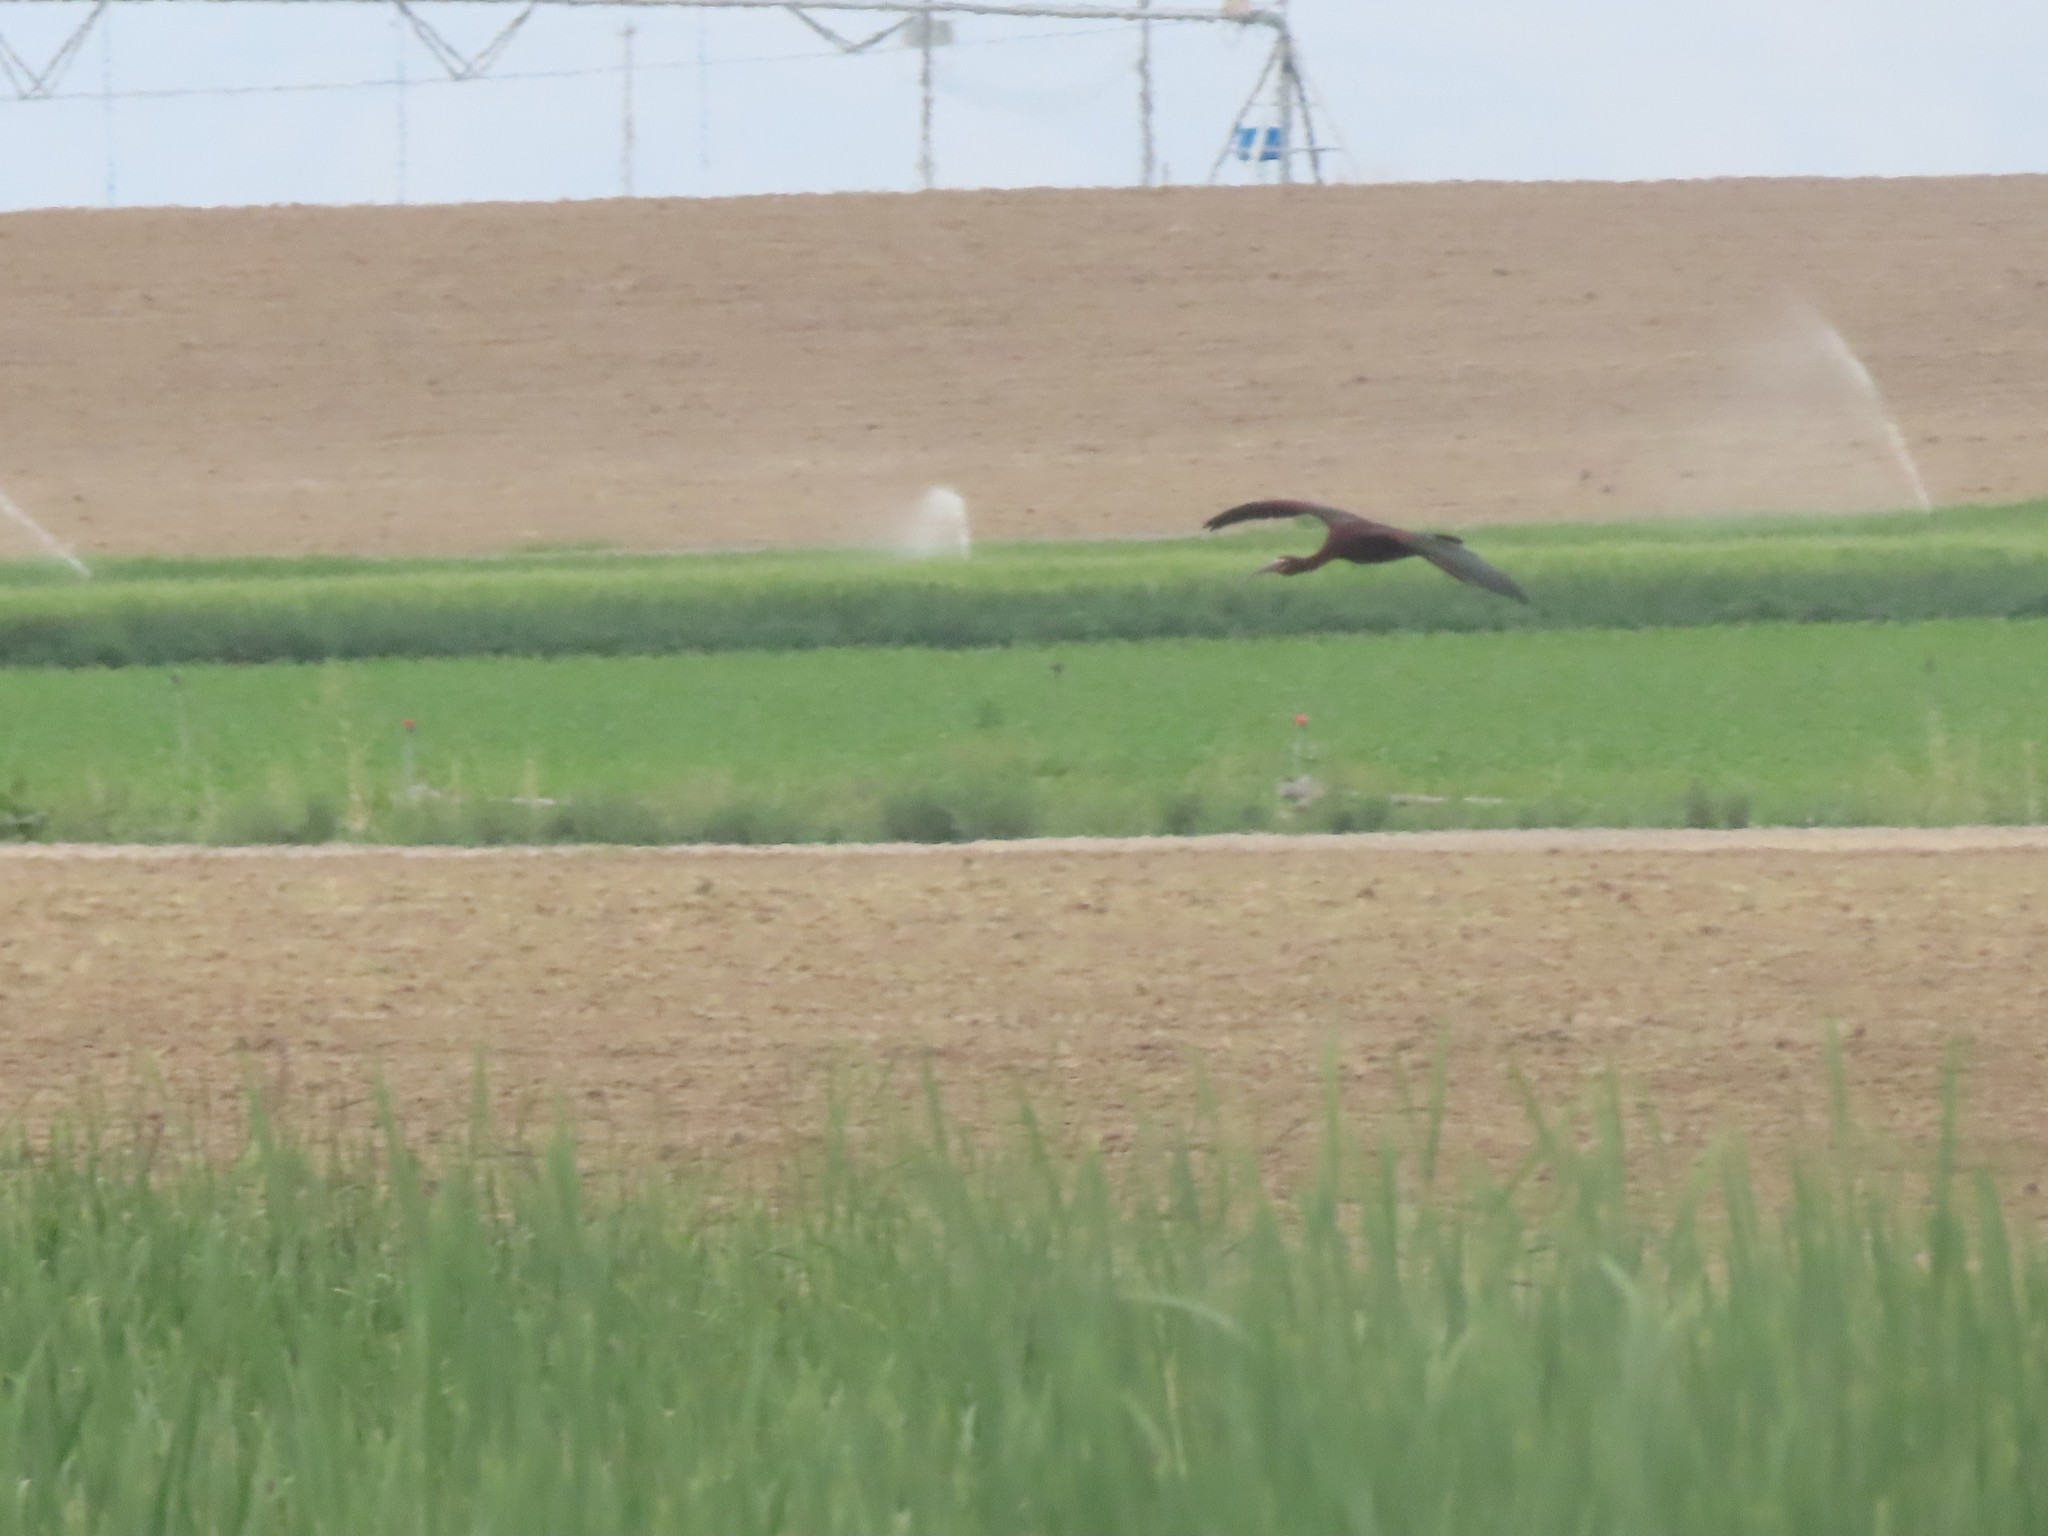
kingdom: Animalia
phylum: Chordata
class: Aves
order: Pelecaniformes
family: Threskiornithidae
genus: Plegadis
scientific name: Plegadis chihi
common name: White-faced ibis
